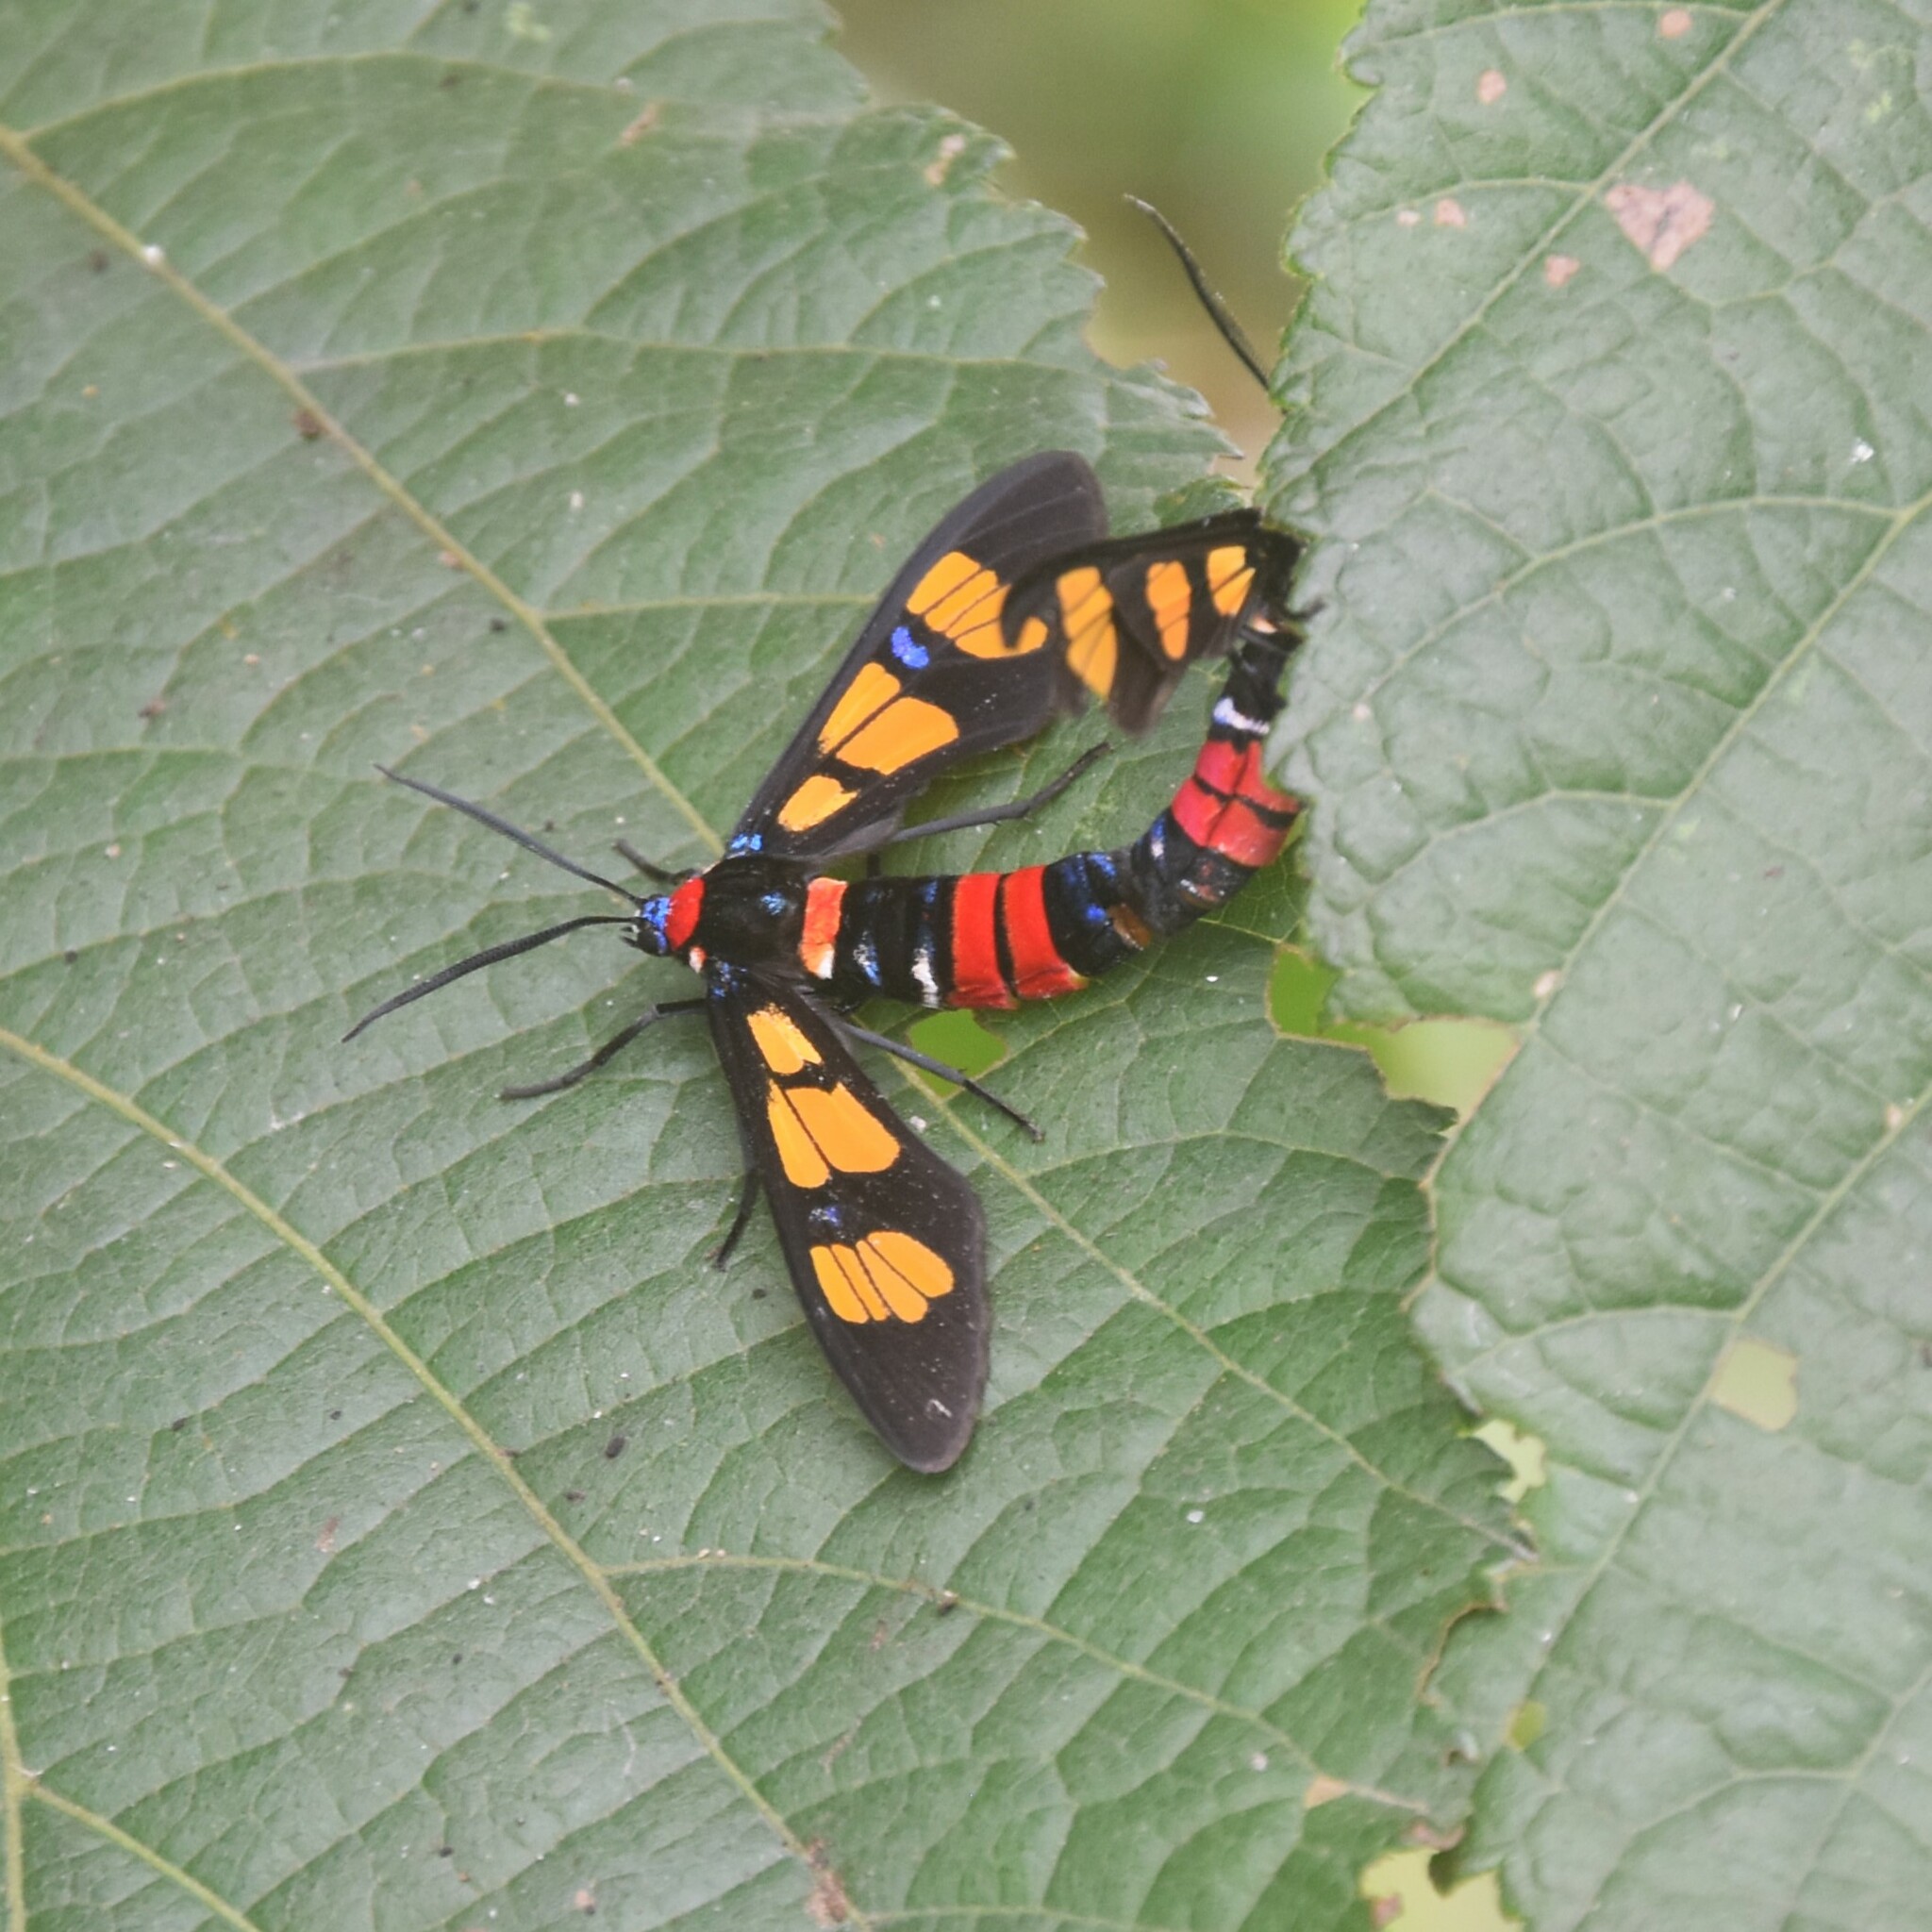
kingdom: Animalia
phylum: Arthropoda
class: Insecta
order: Lepidoptera
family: Erebidae
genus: Euchromia
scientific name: Euchromia polymena
